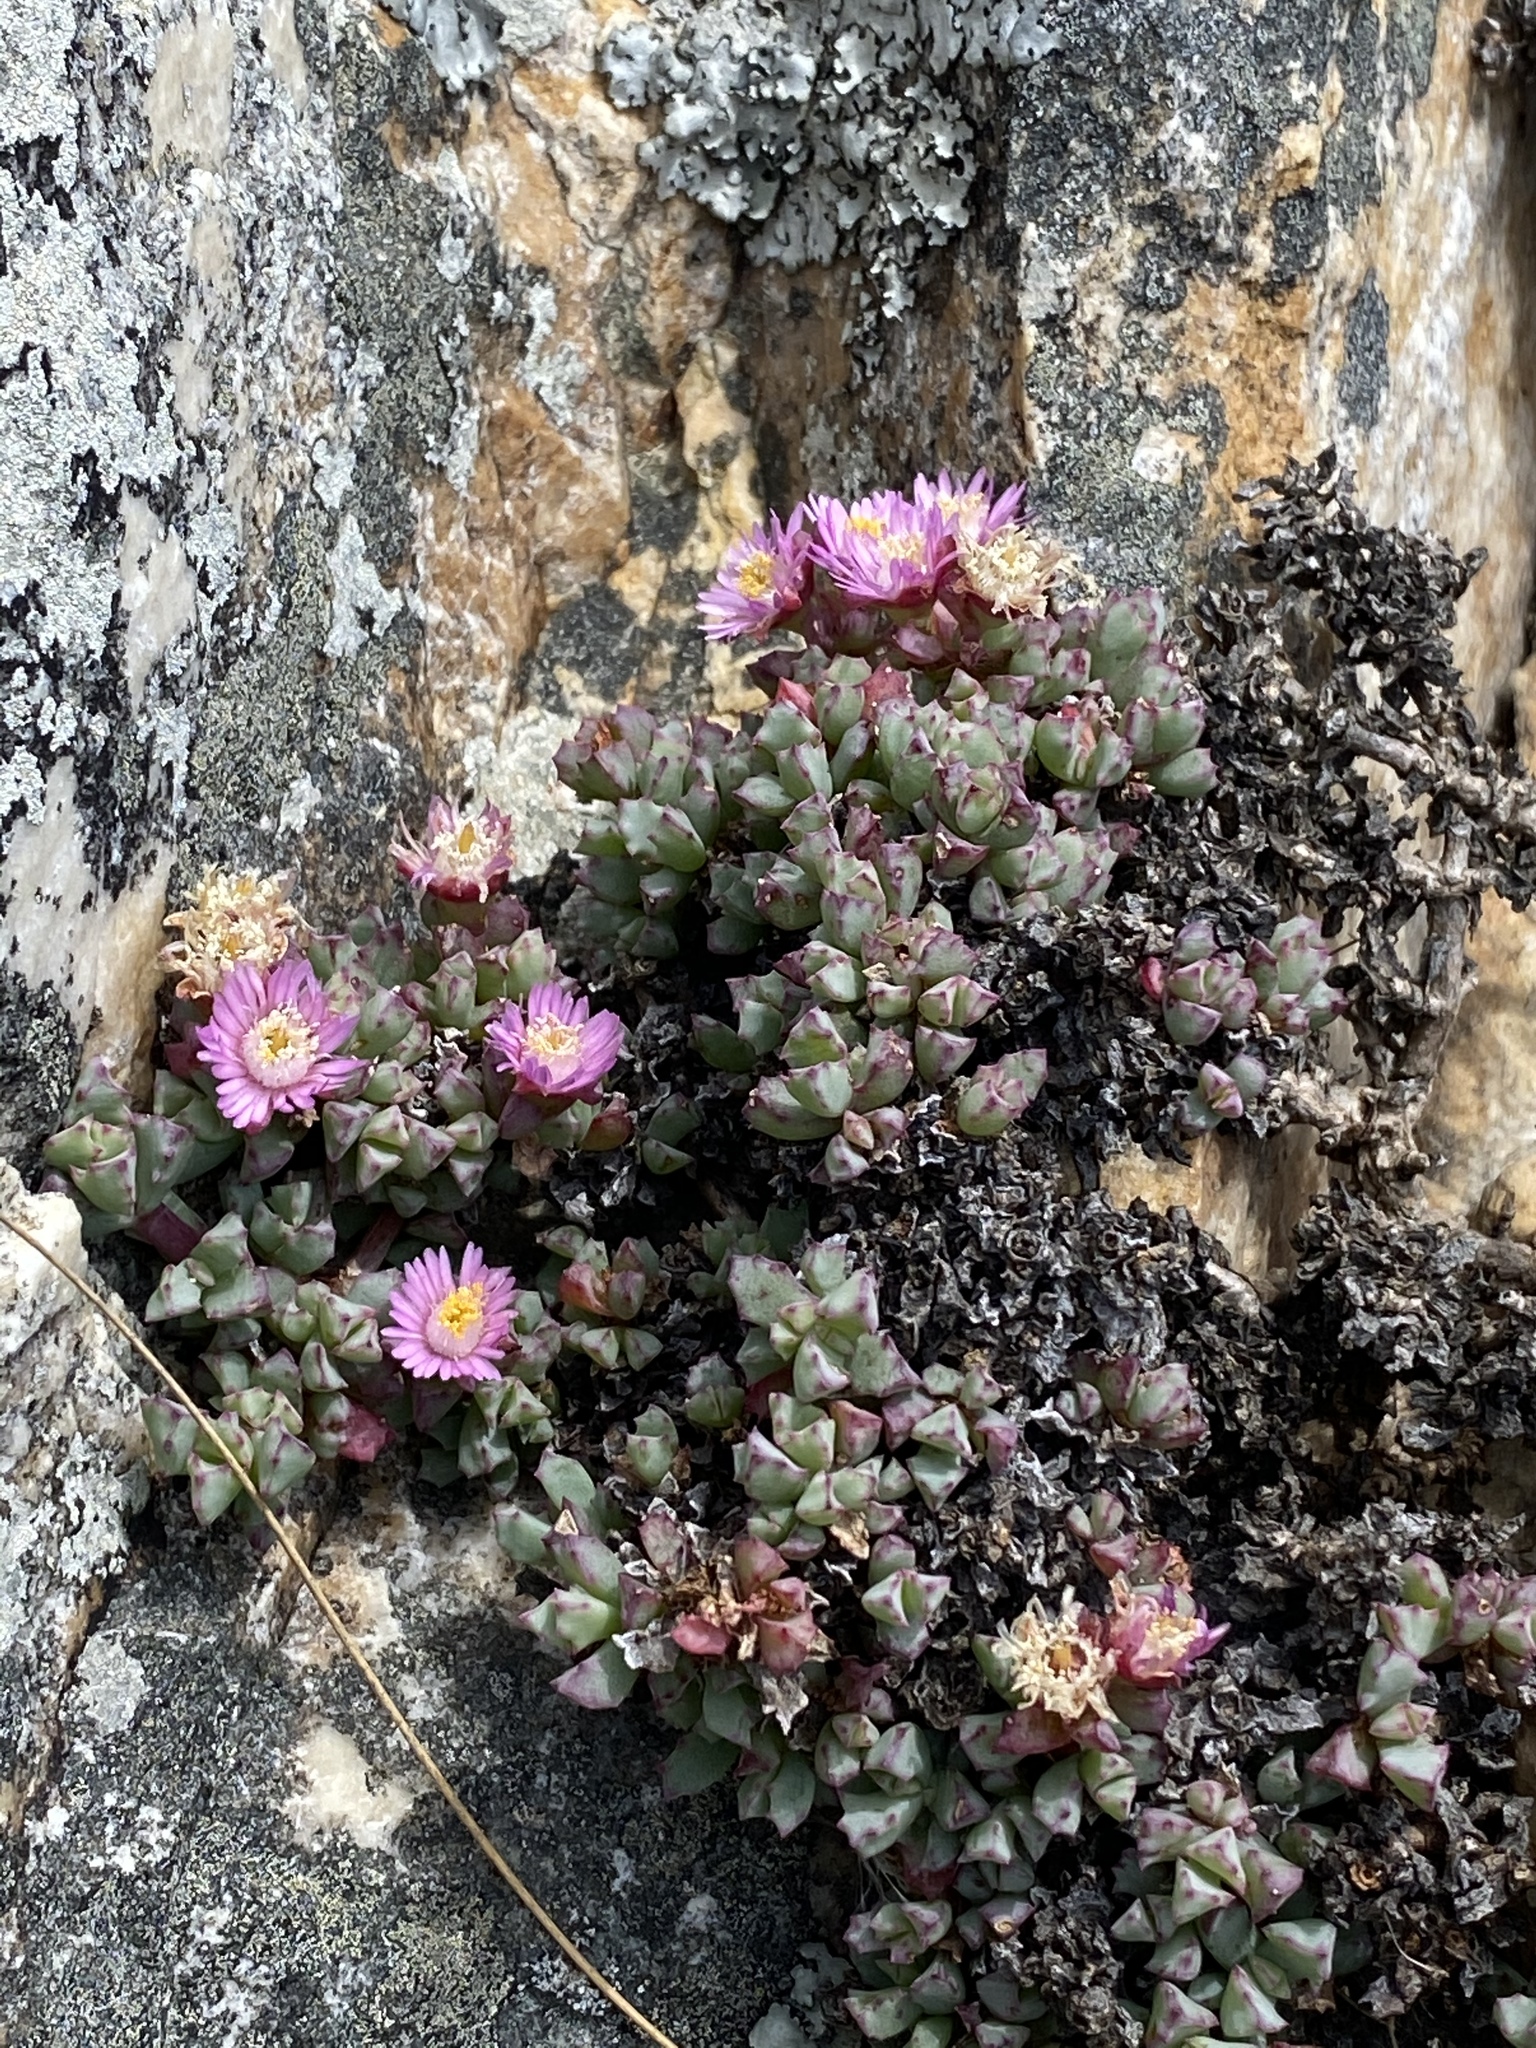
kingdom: Plantae
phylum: Tracheophyta
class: Magnoliopsida
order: Caryophyllales
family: Aizoaceae
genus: Oscularia
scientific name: Oscularia deltoides
